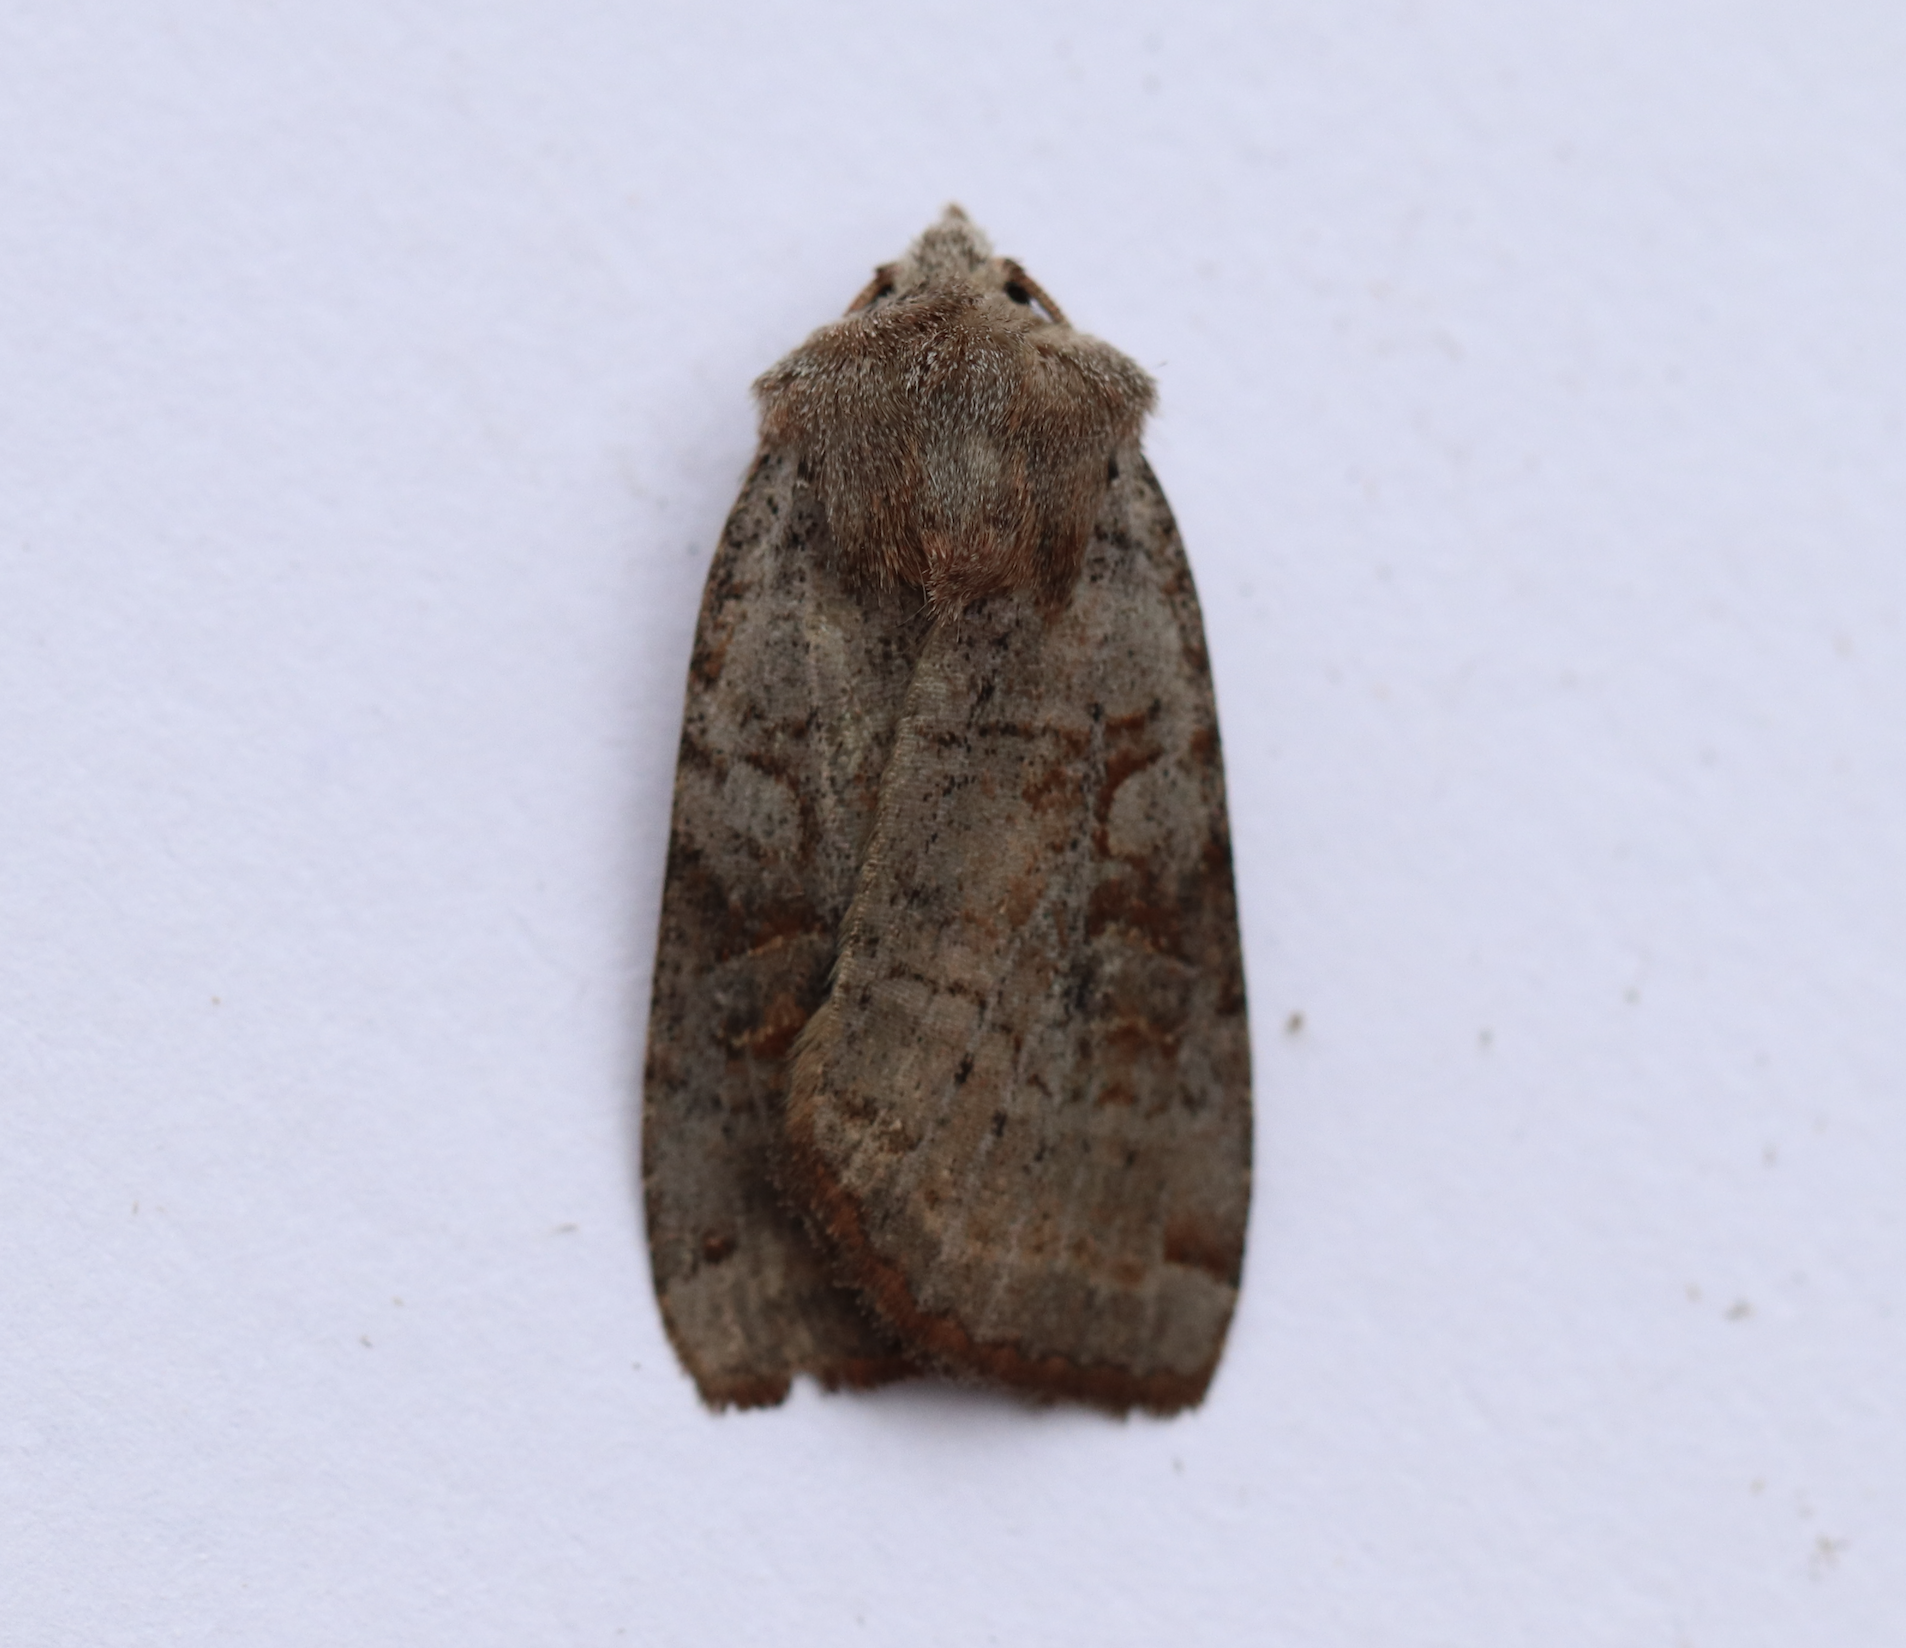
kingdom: Animalia
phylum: Arthropoda
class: Insecta
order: Lepidoptera
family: Noctuidae
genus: Xestia
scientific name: Xestia smithii
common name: Smith's dart
